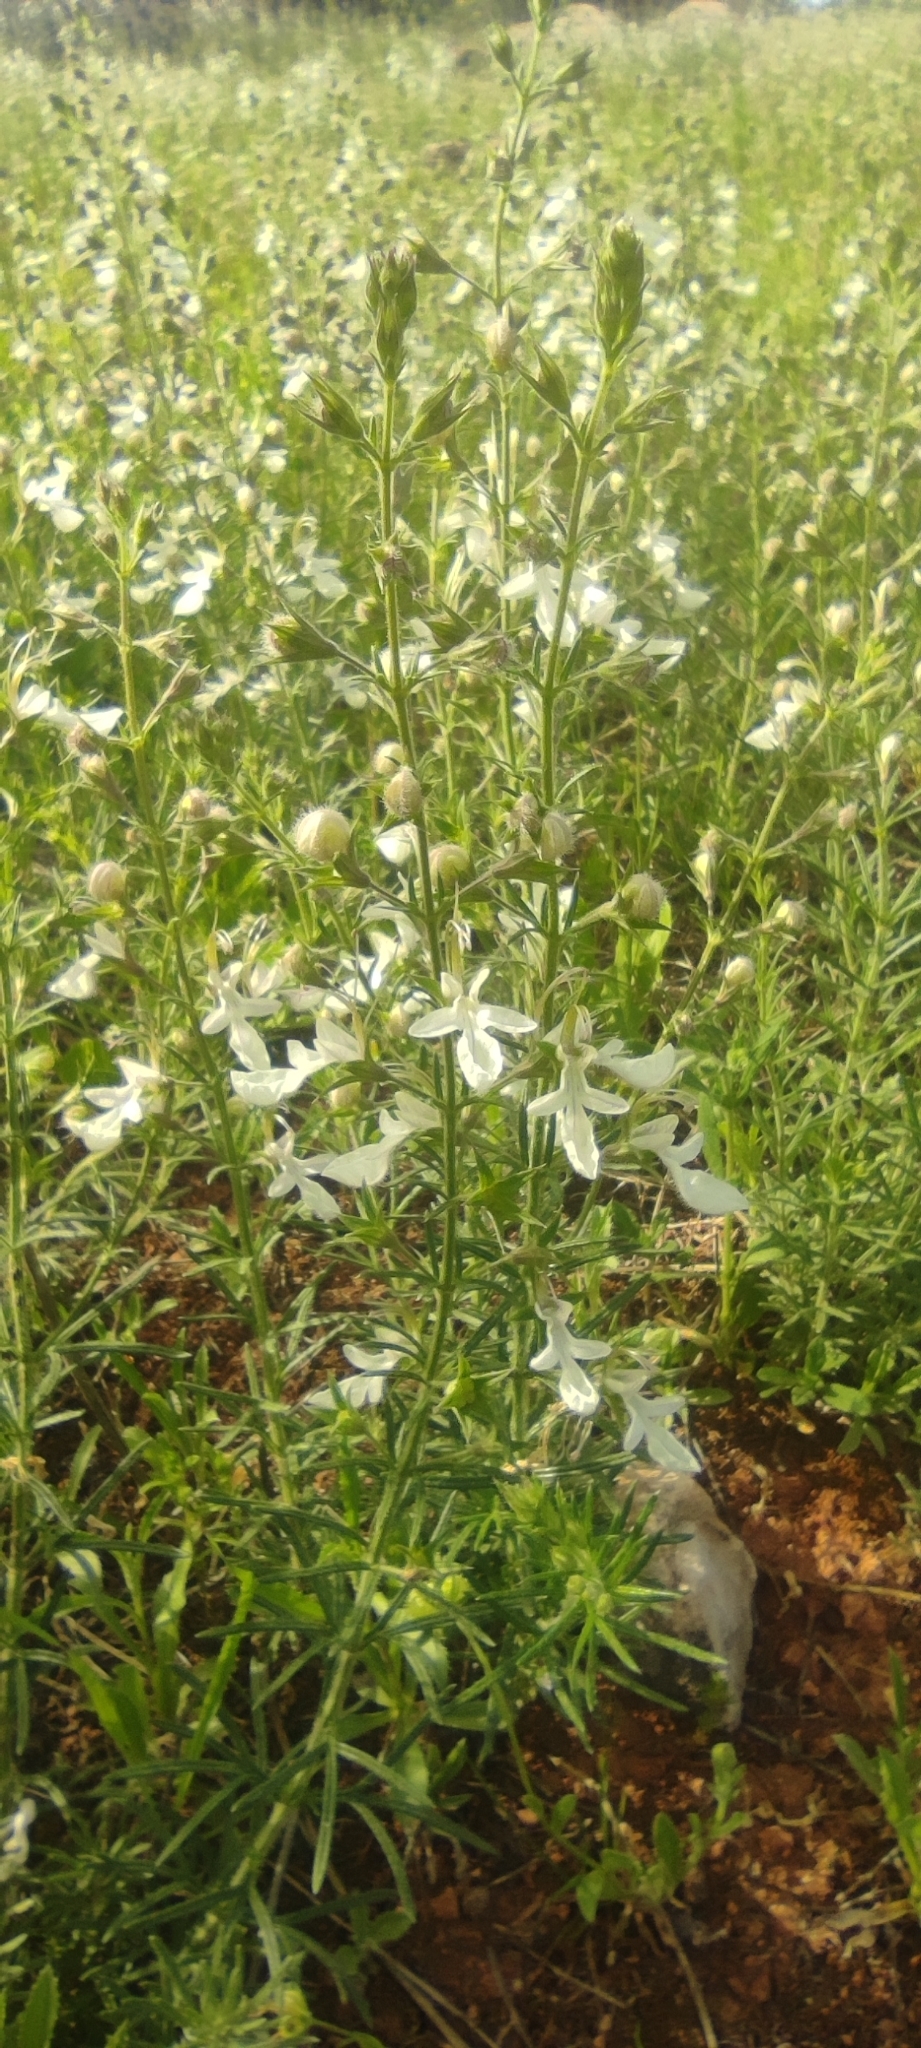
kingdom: Plantae
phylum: Tracheophyta
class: Magnoliopsida
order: Lamiales
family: Lamiaceae
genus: Teucrium
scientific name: Teucrium pseudochamaepitys
